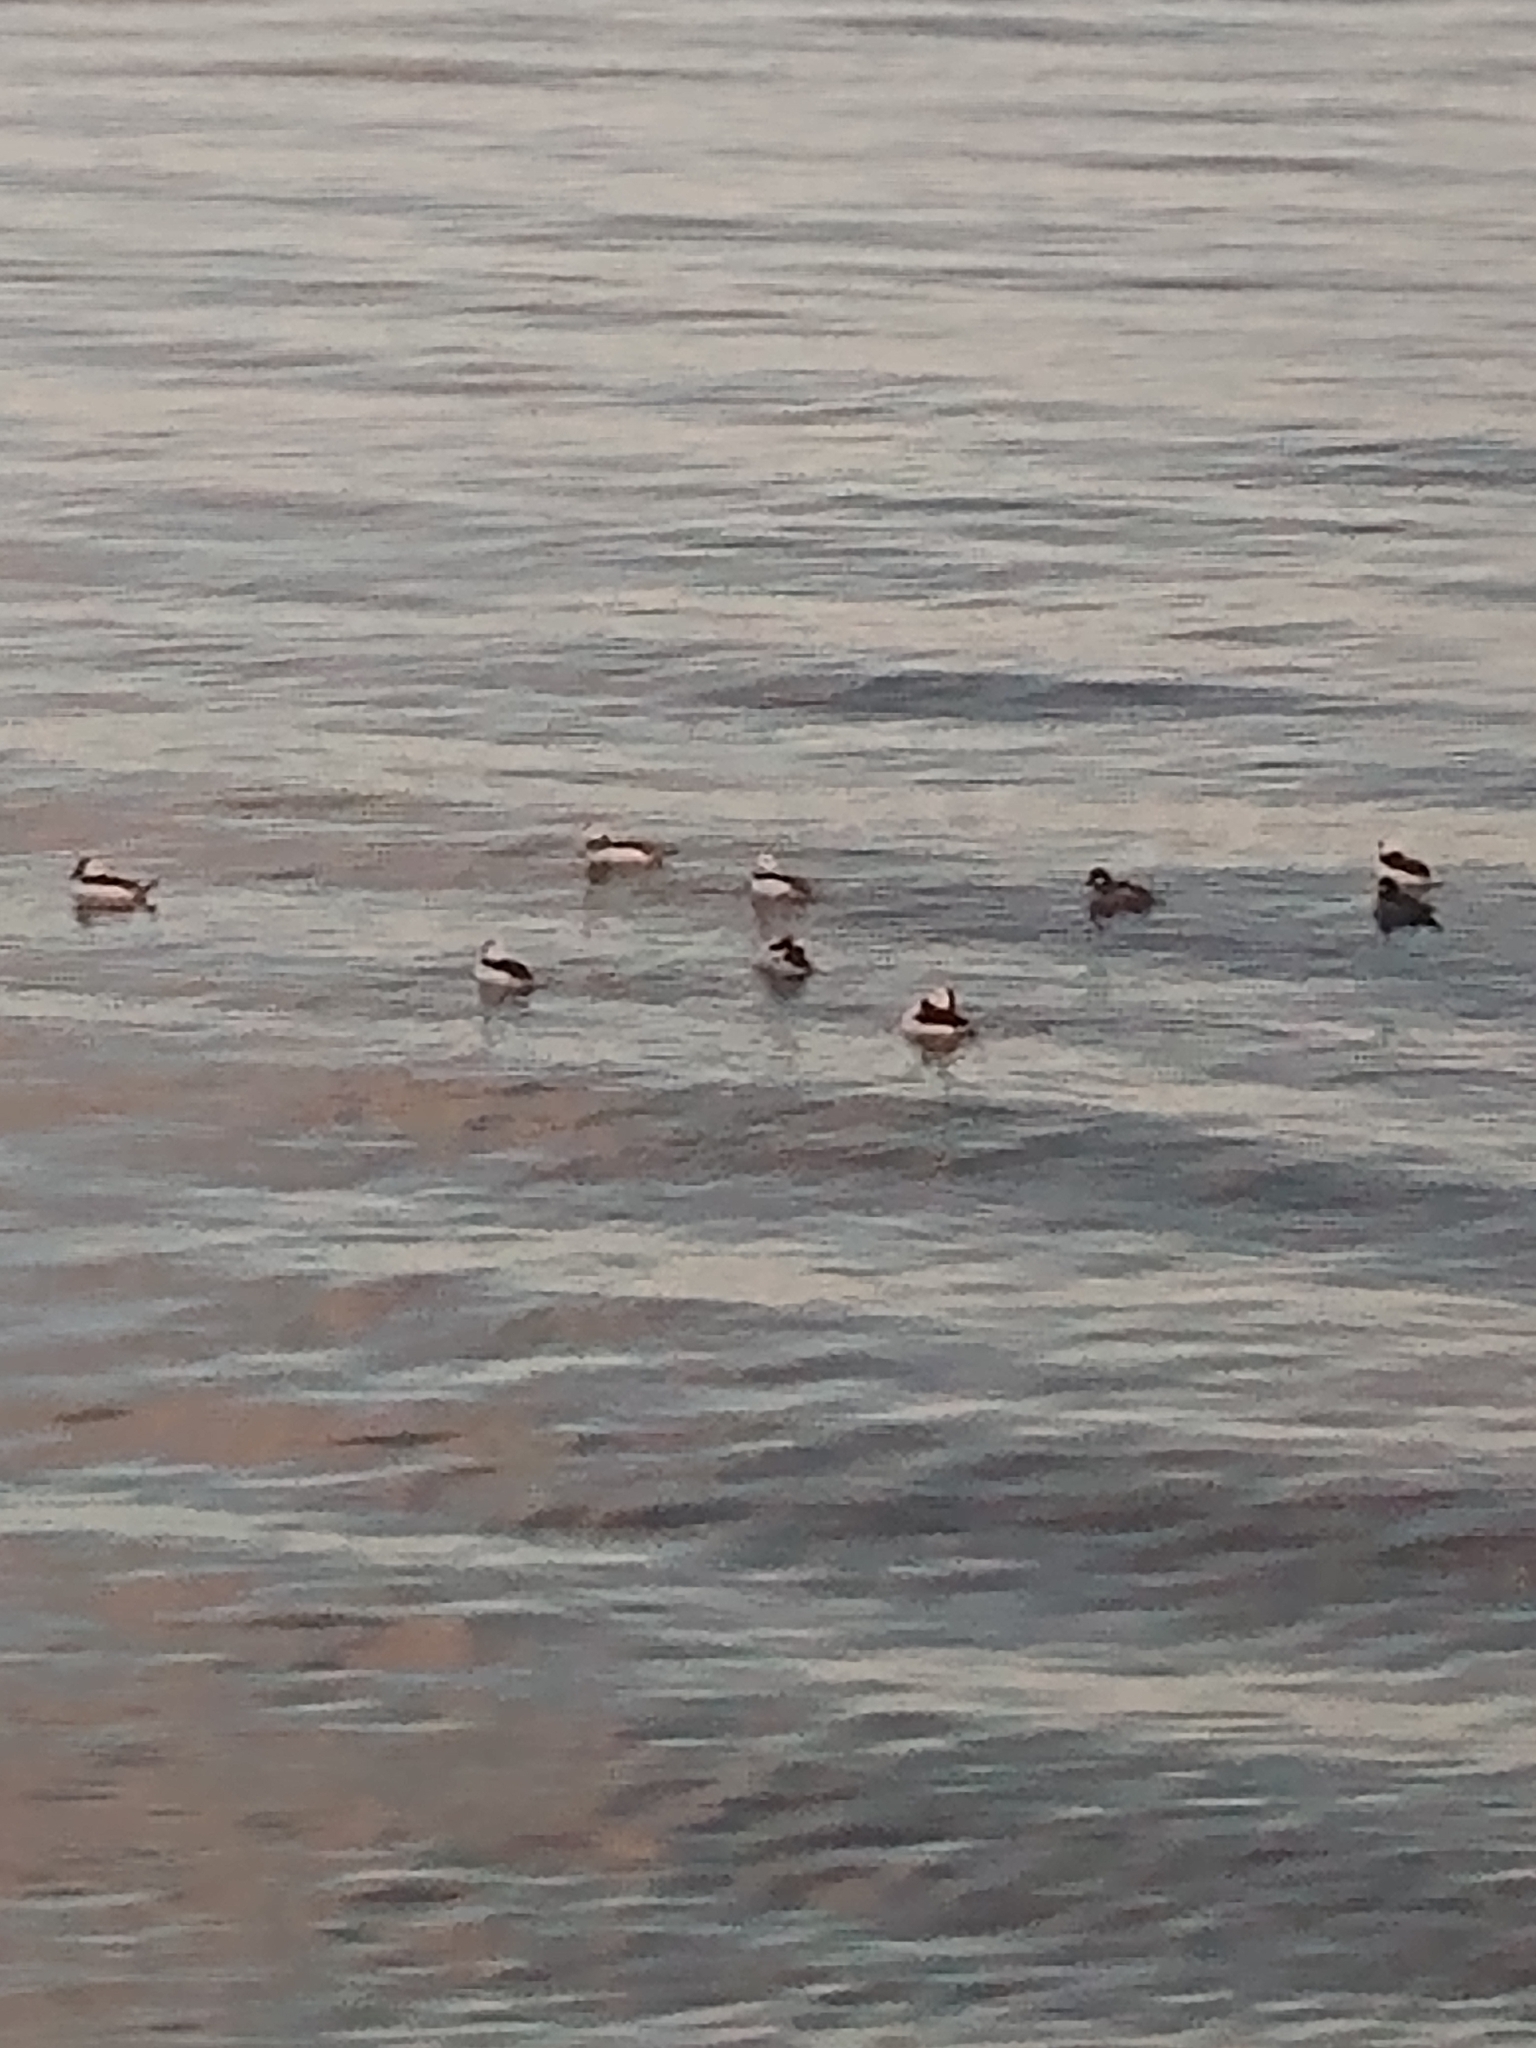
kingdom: Animalia
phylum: Chordata
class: Aves
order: Anseriformes
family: Anatidae
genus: Bucephala
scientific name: Bucephala albeola
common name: Bufflehead
